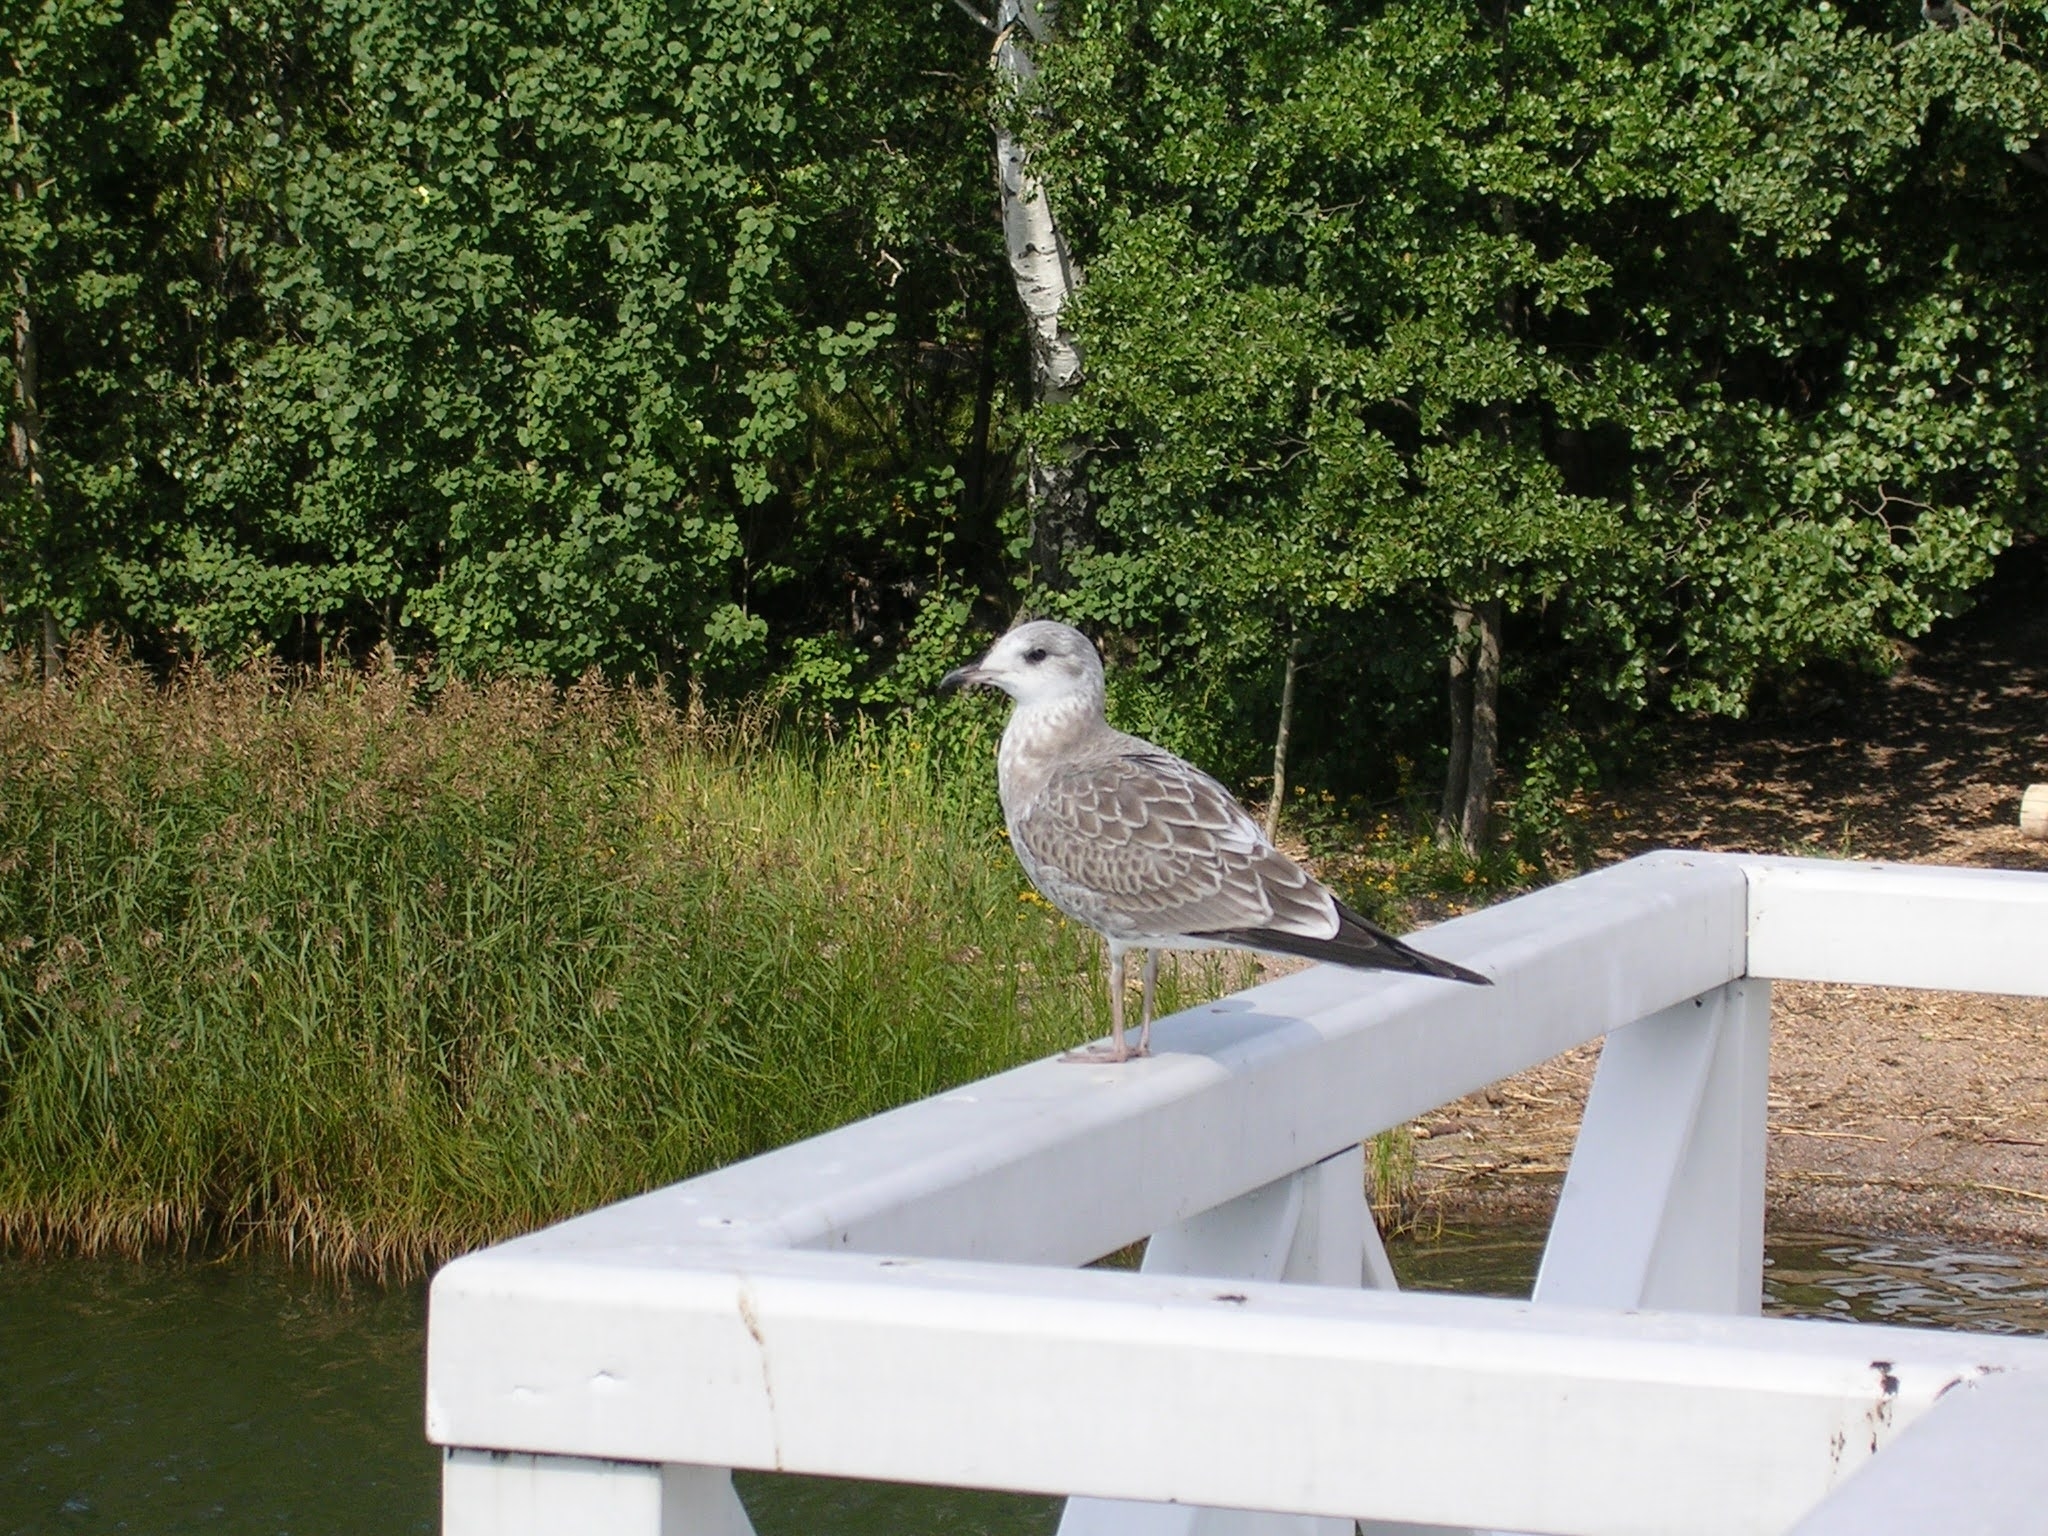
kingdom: Animalia
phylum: Chordata
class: Aves
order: Charadriiformes
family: Laridae
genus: Larus
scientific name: Larus canus
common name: Mew gull
